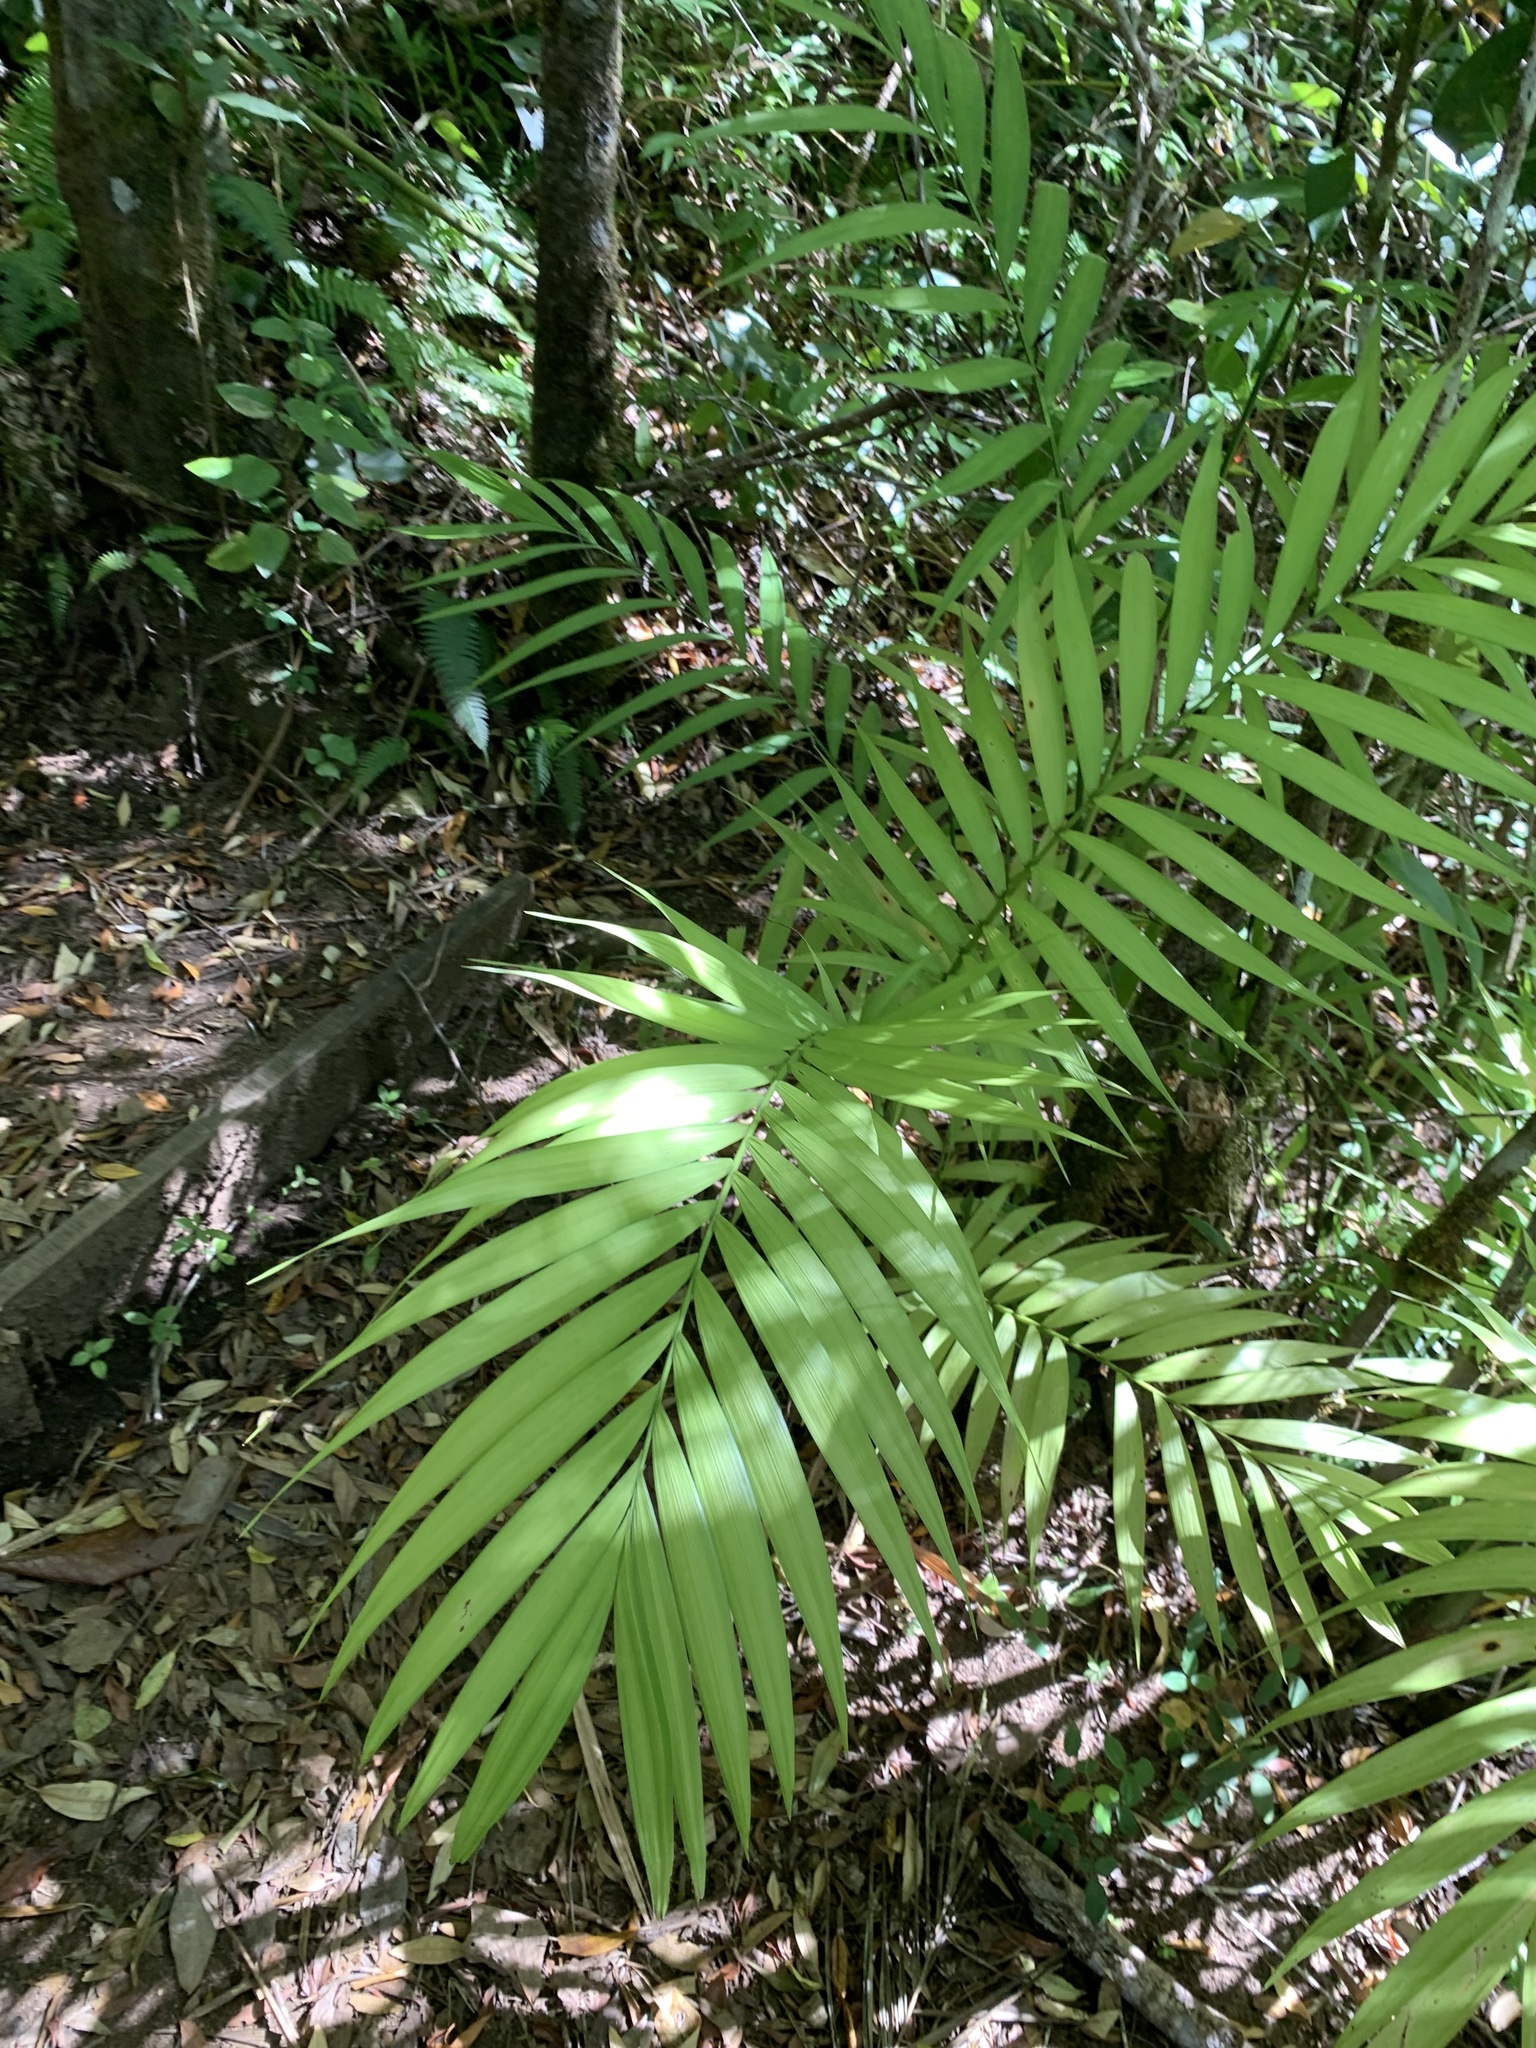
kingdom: Plantae
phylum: Tracheophyta
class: Liliopsida
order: Arecales
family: Arecaceae
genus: Chamaedorea
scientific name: Chamaedorea tepejilote
